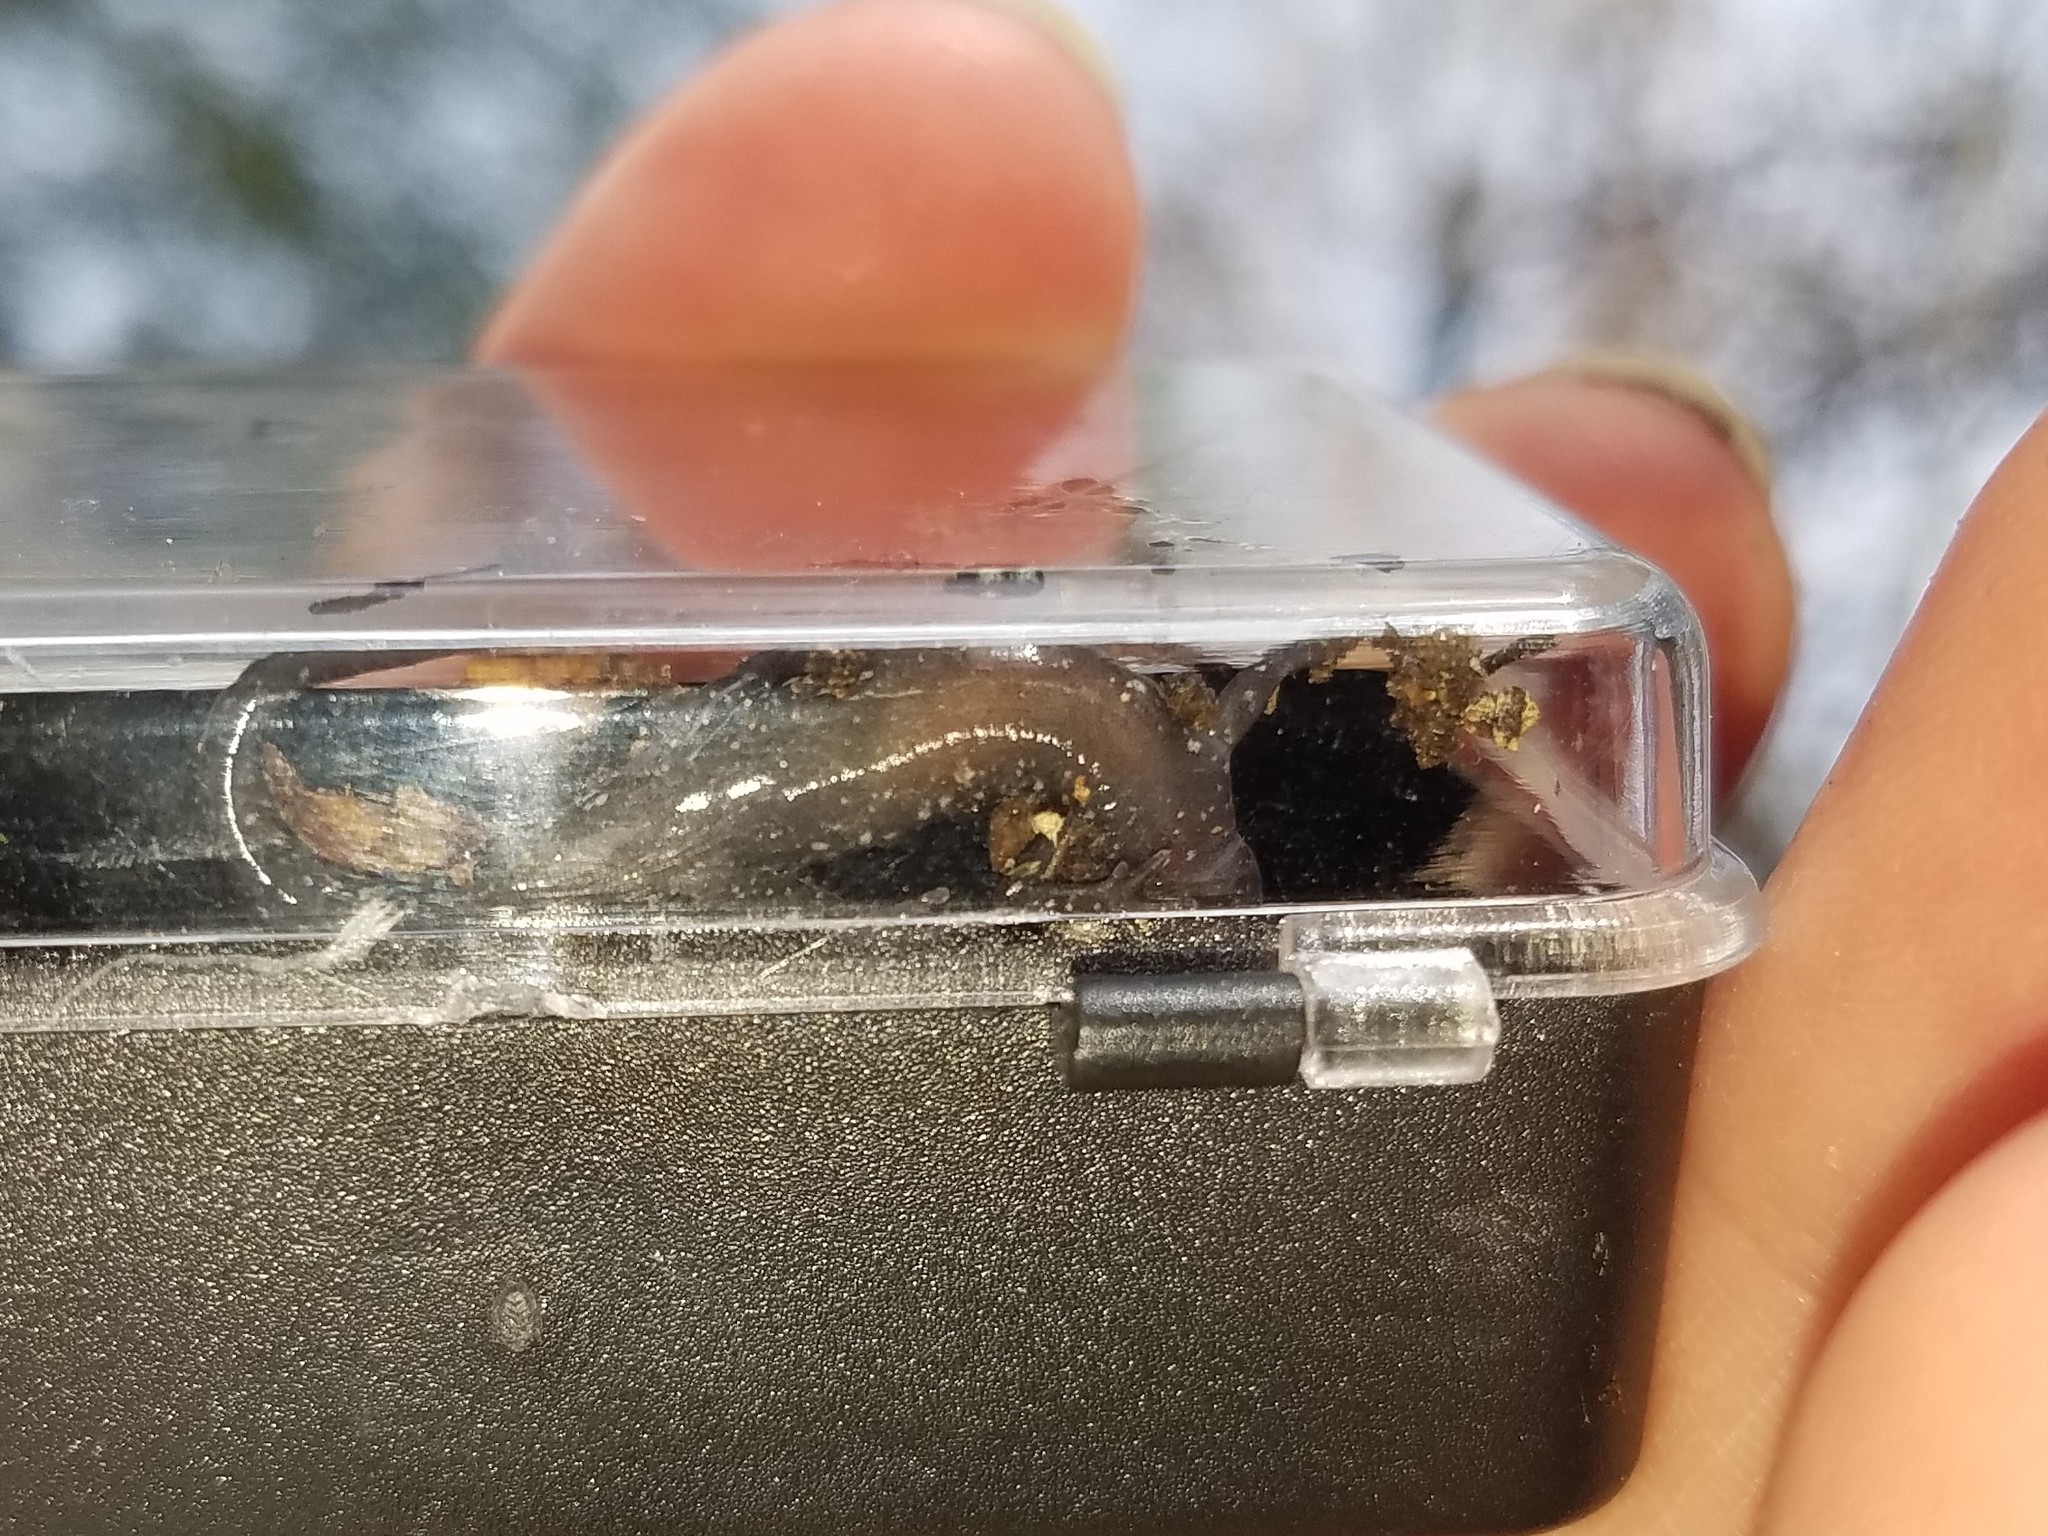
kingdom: Animalia
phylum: Chordata
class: Amphibia
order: Caudata
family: Plethodontidae
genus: Plethodon
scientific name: Plethodon glutinosus
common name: Northern slimy salamander
